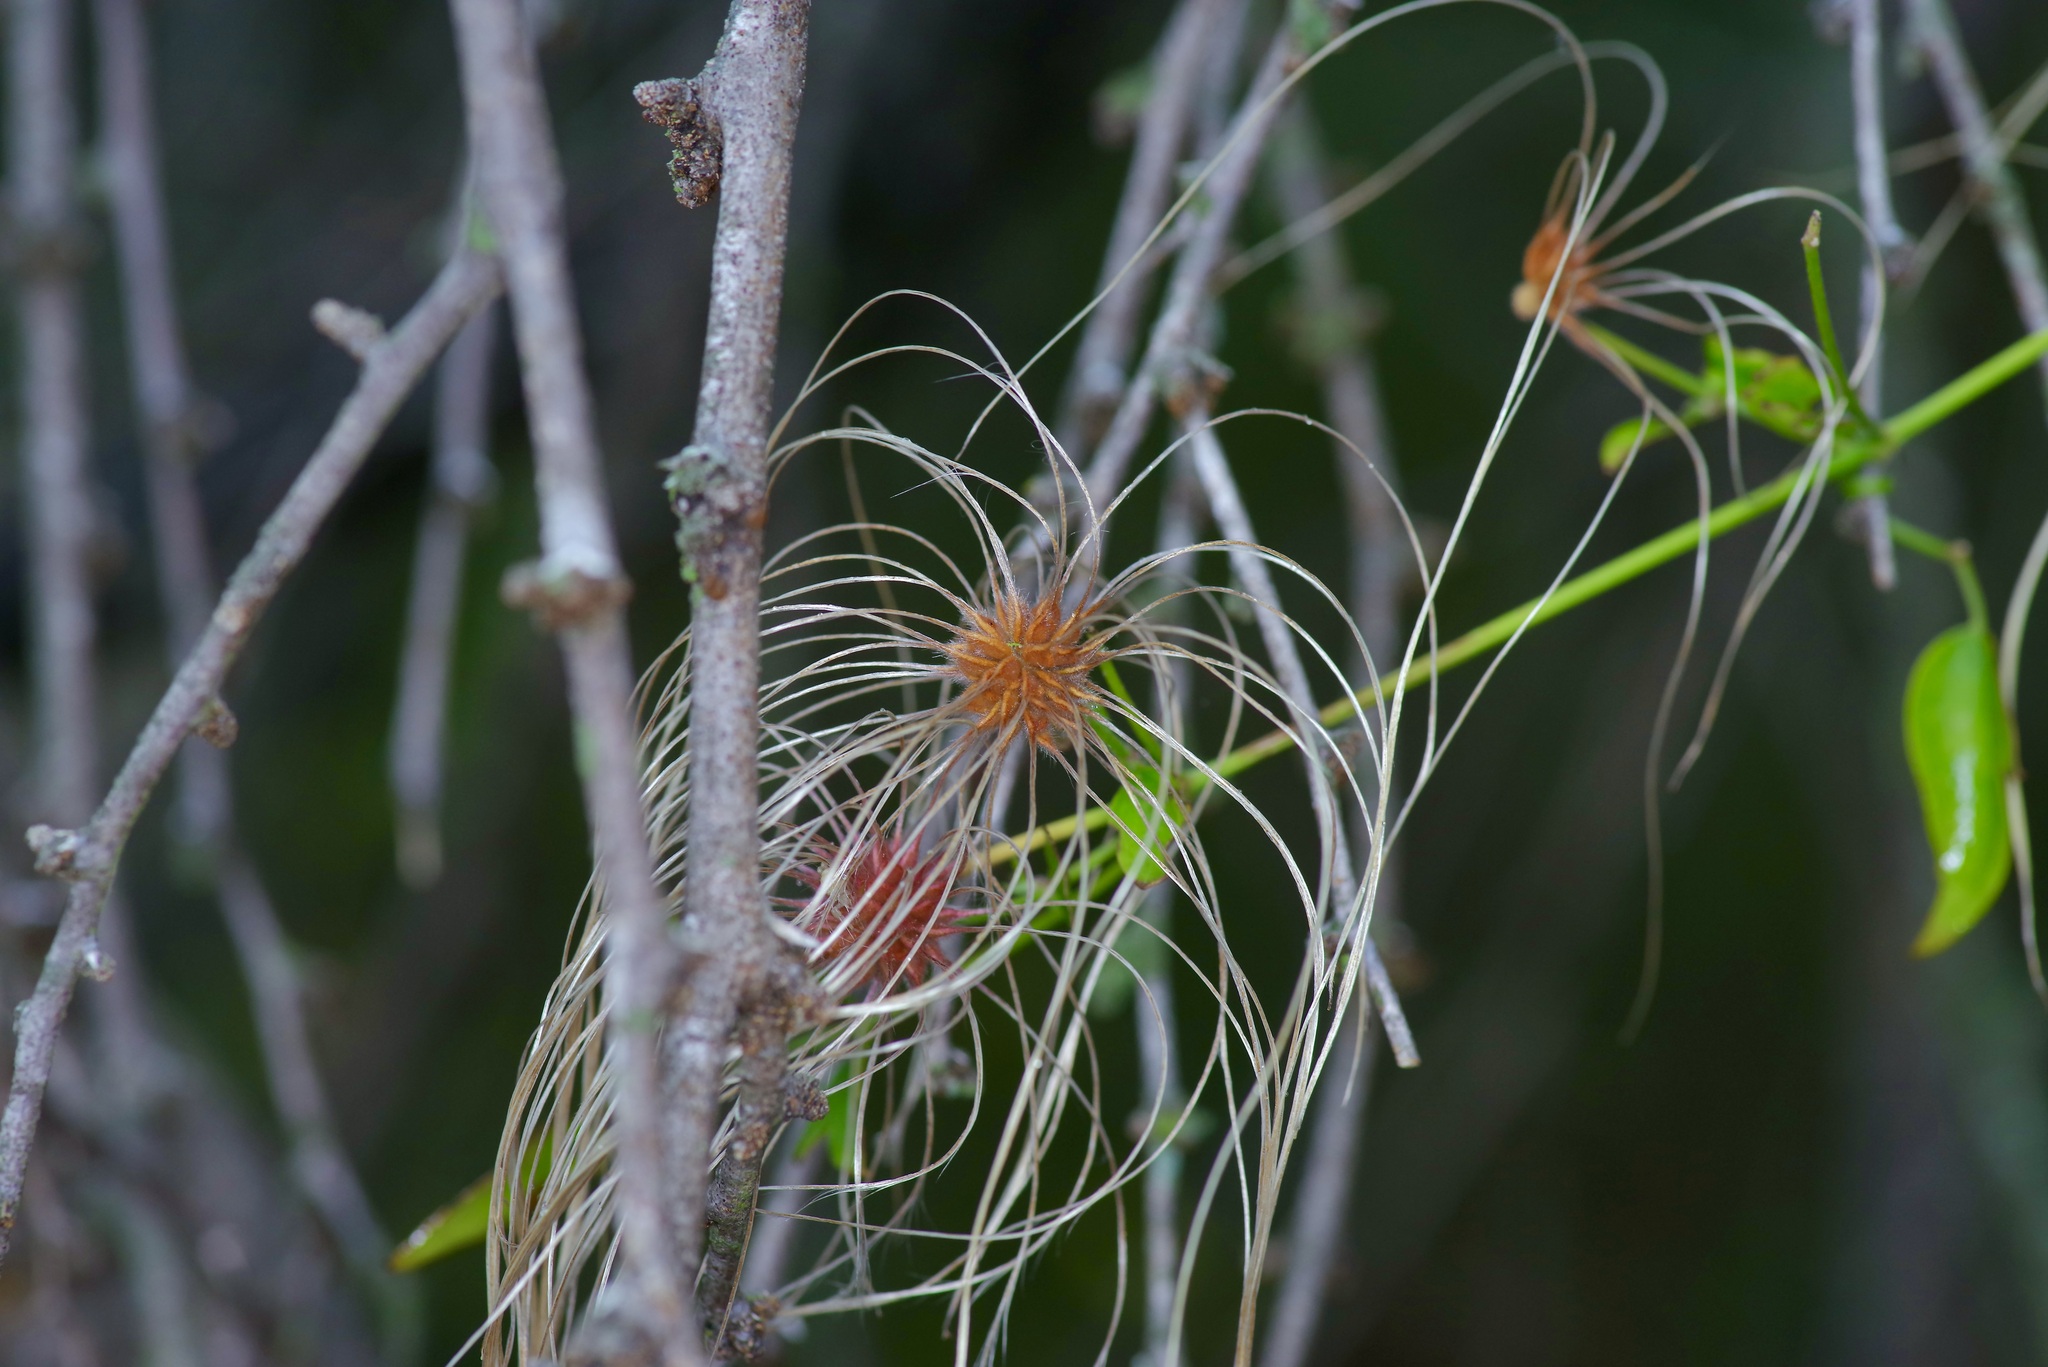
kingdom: Plantae
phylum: Tracheophyta
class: Magnoliopsida
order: Ranunculales
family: Ranunculaceae
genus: Clematis
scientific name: Clematis drummondii
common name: Texas virgin's bower
